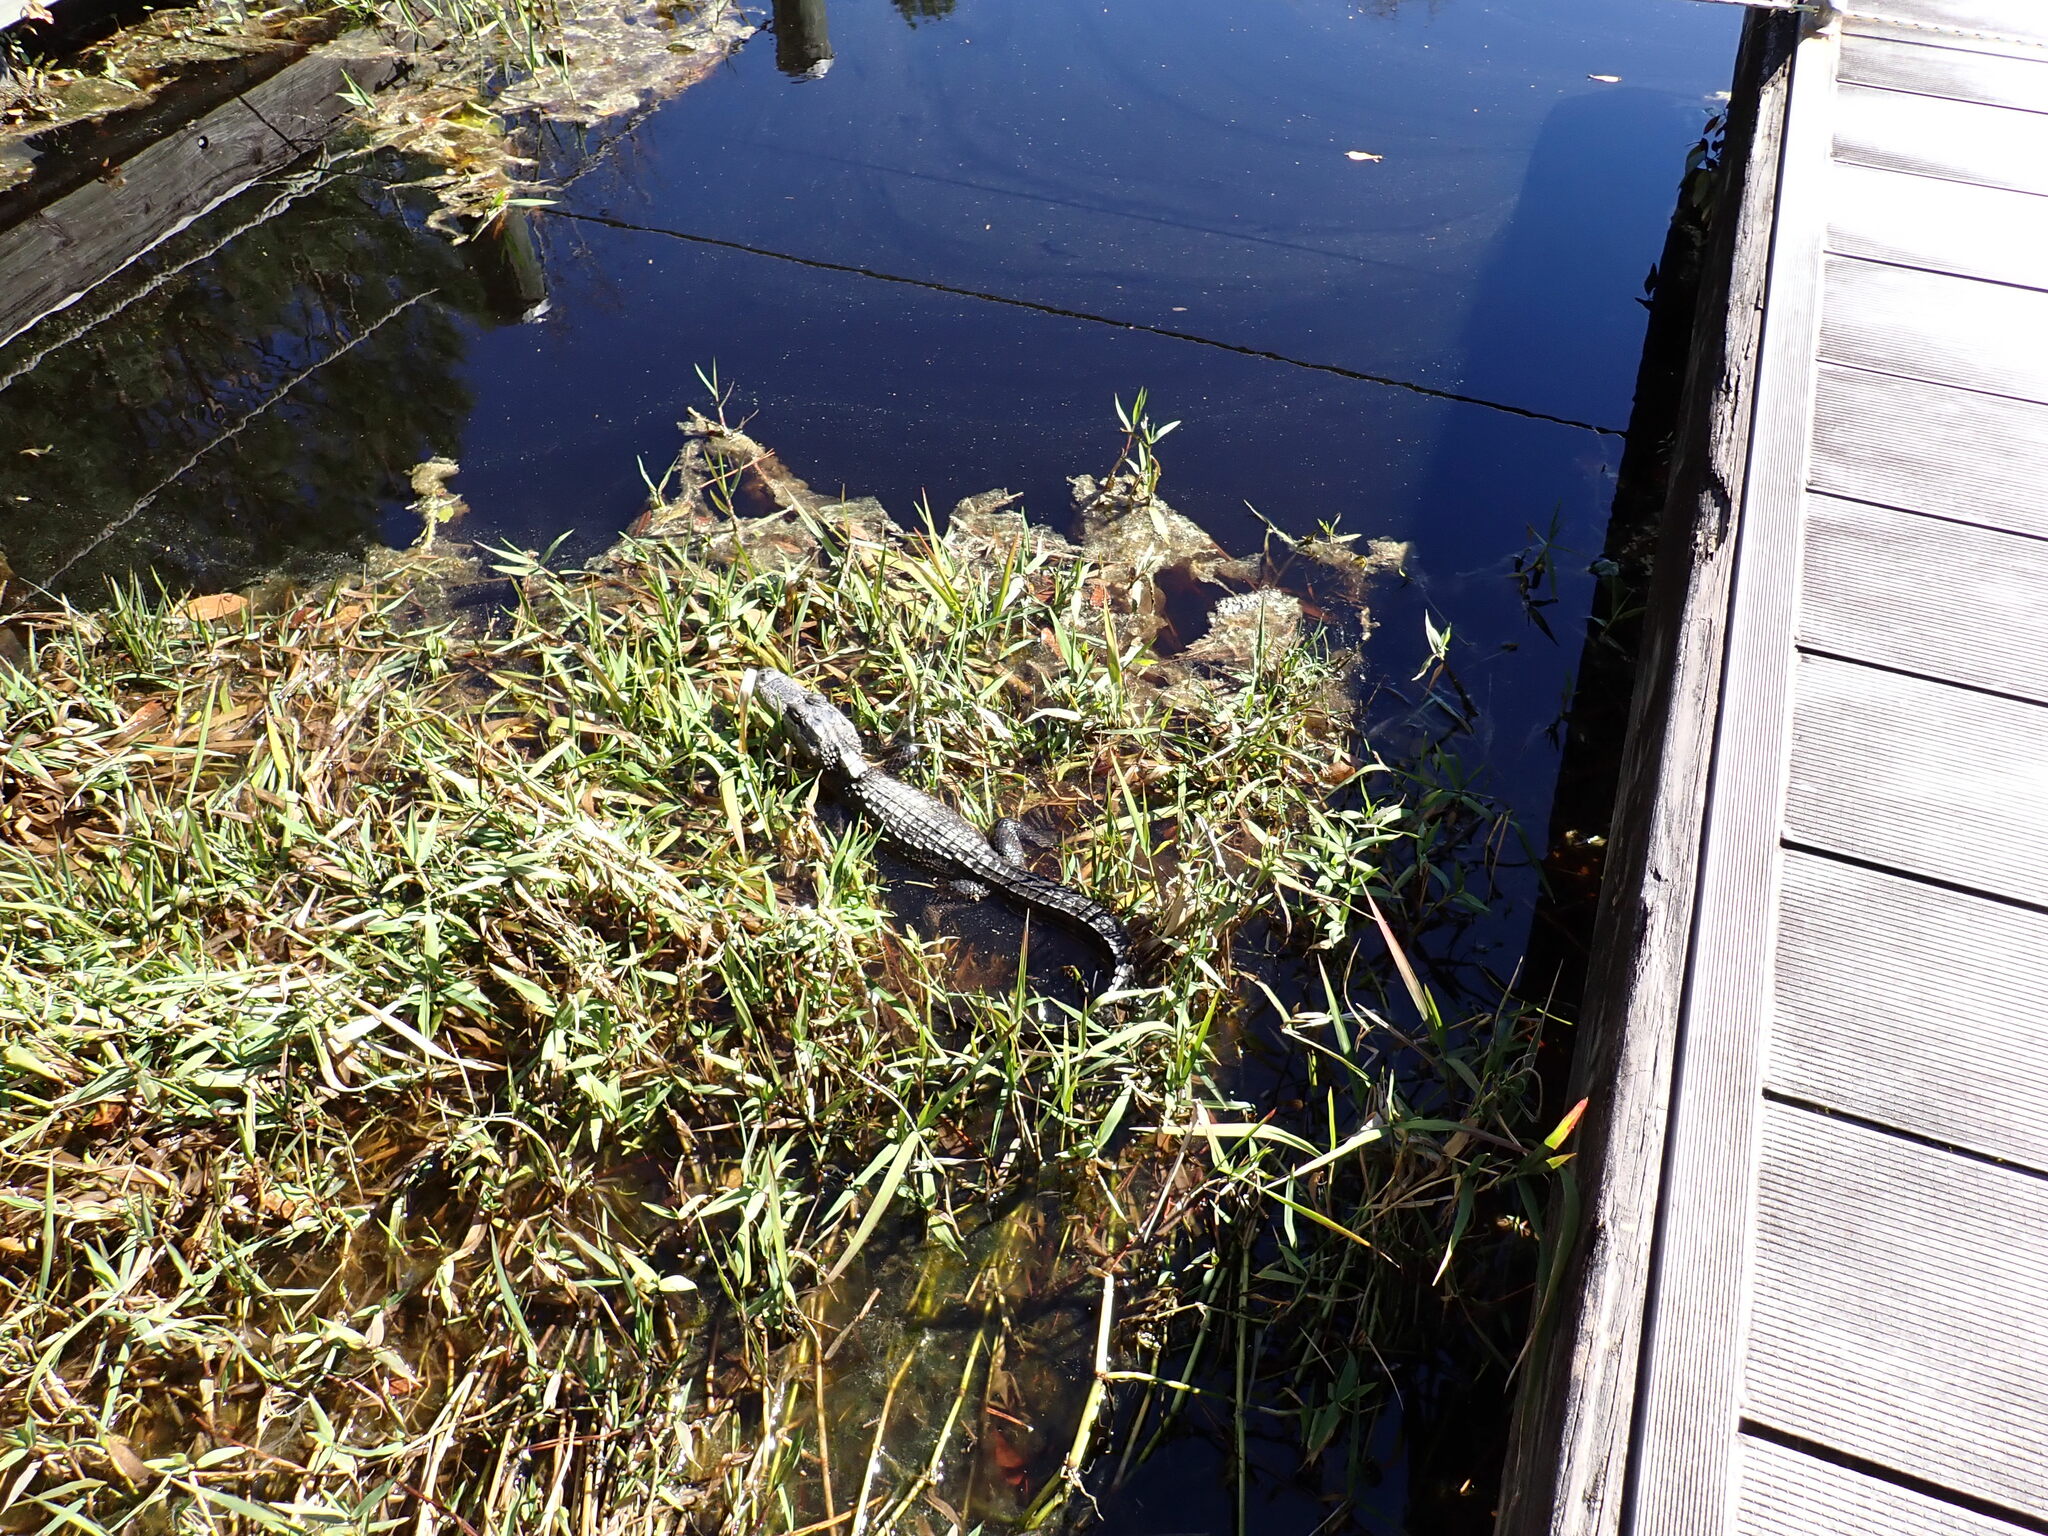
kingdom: Animalia
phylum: Chordata
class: Crocodylia
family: Alligatoridae
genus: Alligator
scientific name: Alligator mississippiensis
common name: American alligator
